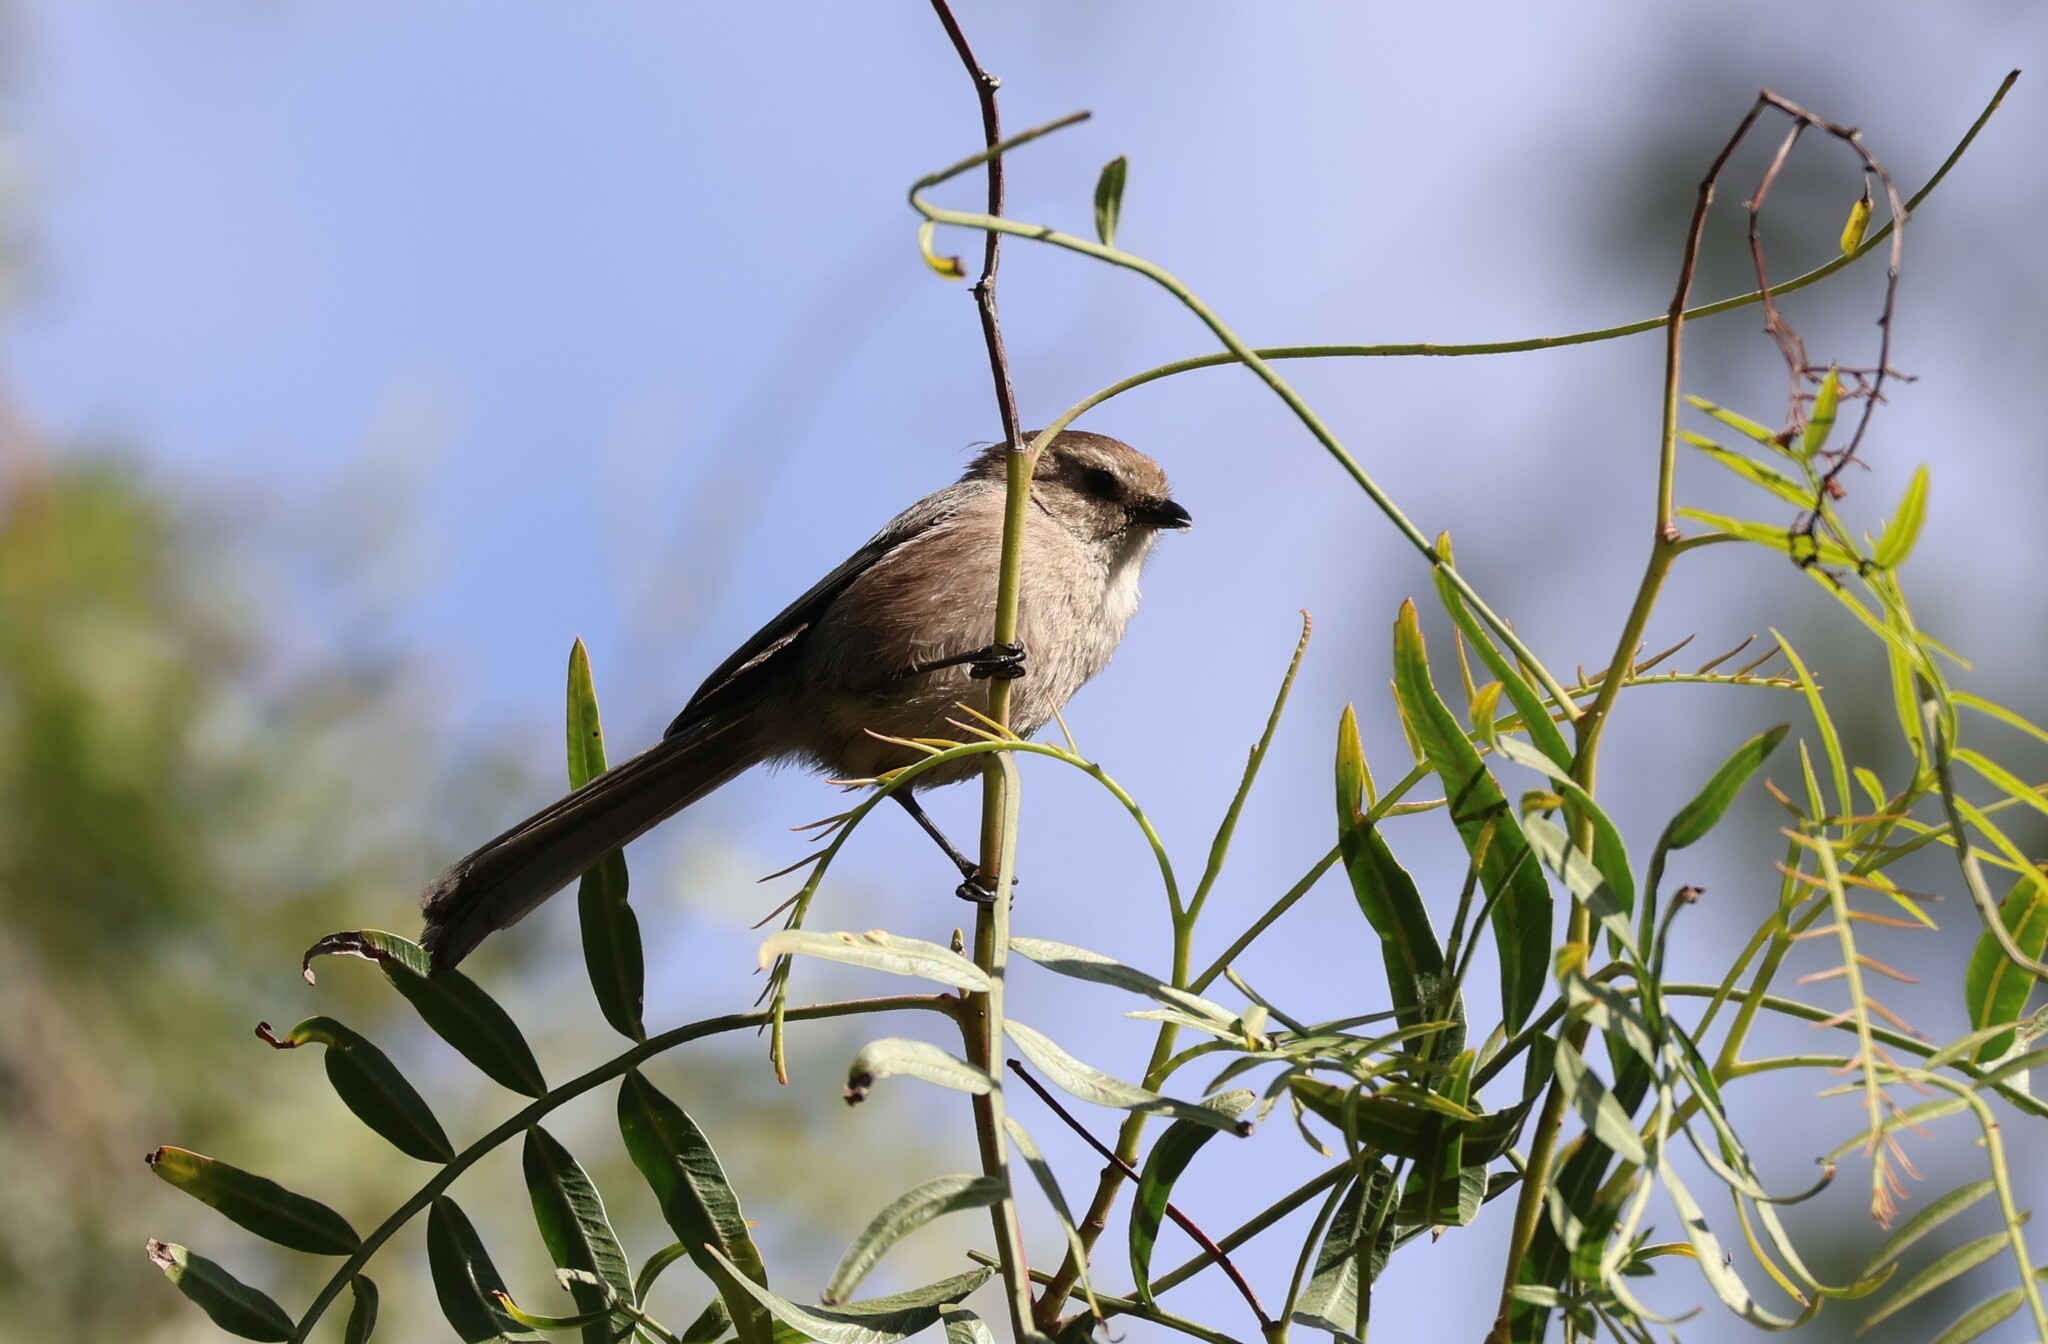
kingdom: Animalia
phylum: Chordata
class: Aves
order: Passeriformes
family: Aegithalidae
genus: Psaltriparus
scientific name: Psaltriparus minimus
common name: American bushtit
